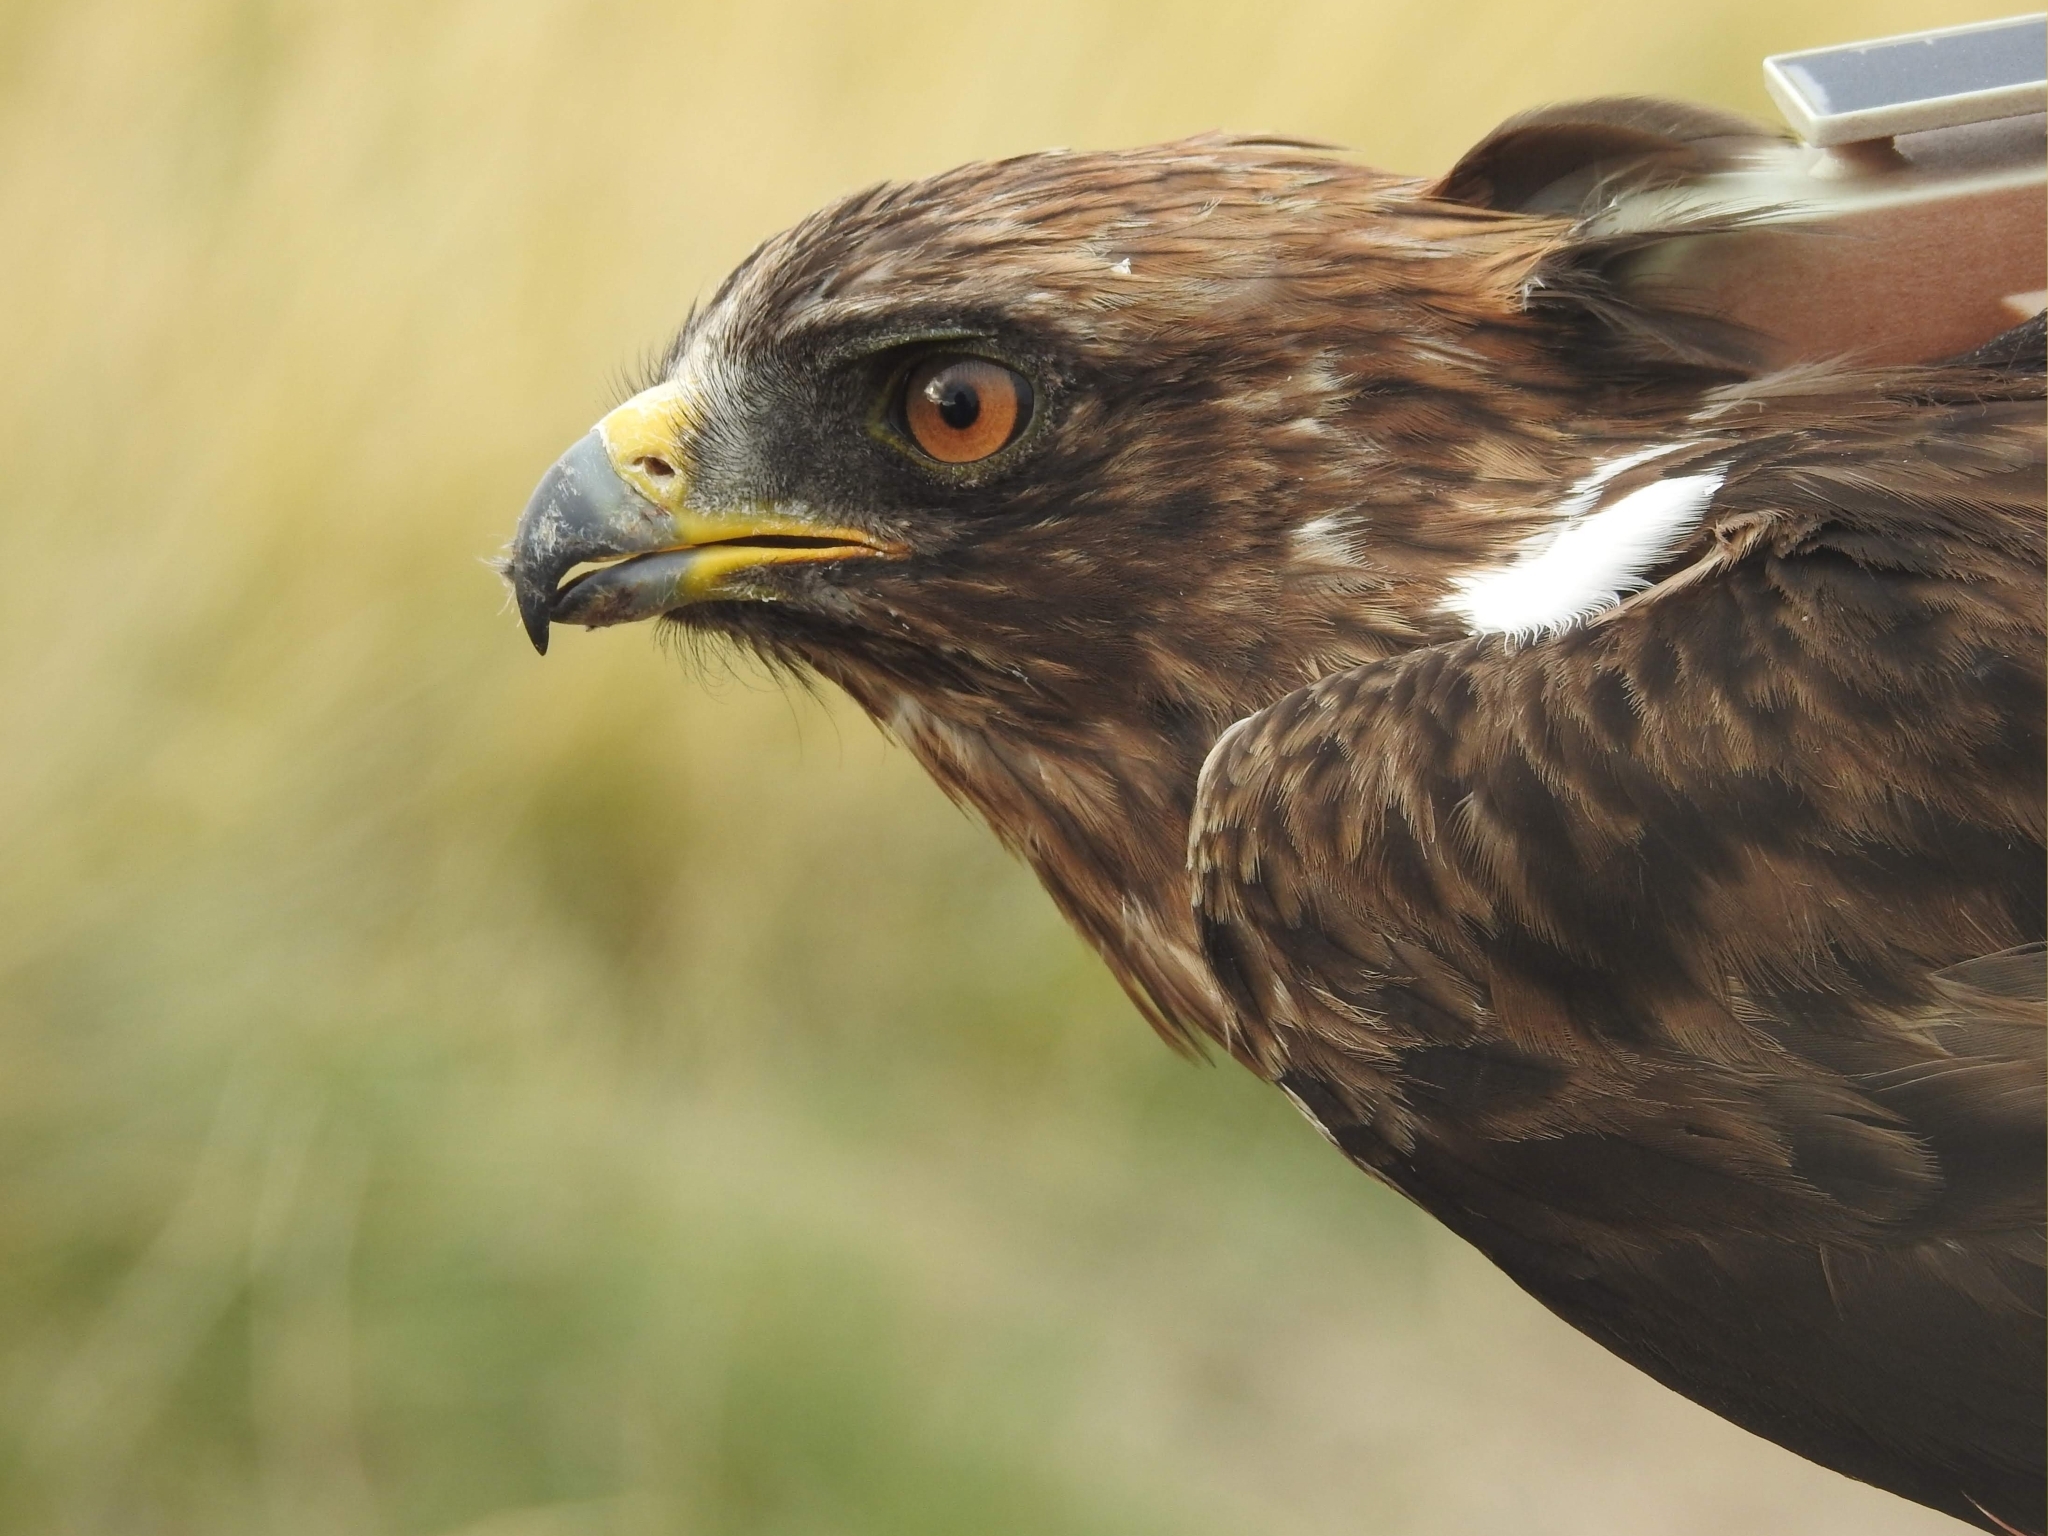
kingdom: Animalia
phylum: Chordata
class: Aves
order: Accipitriformes
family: Accipitridae
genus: Hieraaetus
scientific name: Hieraaetus pennatus
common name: Booted eagle
